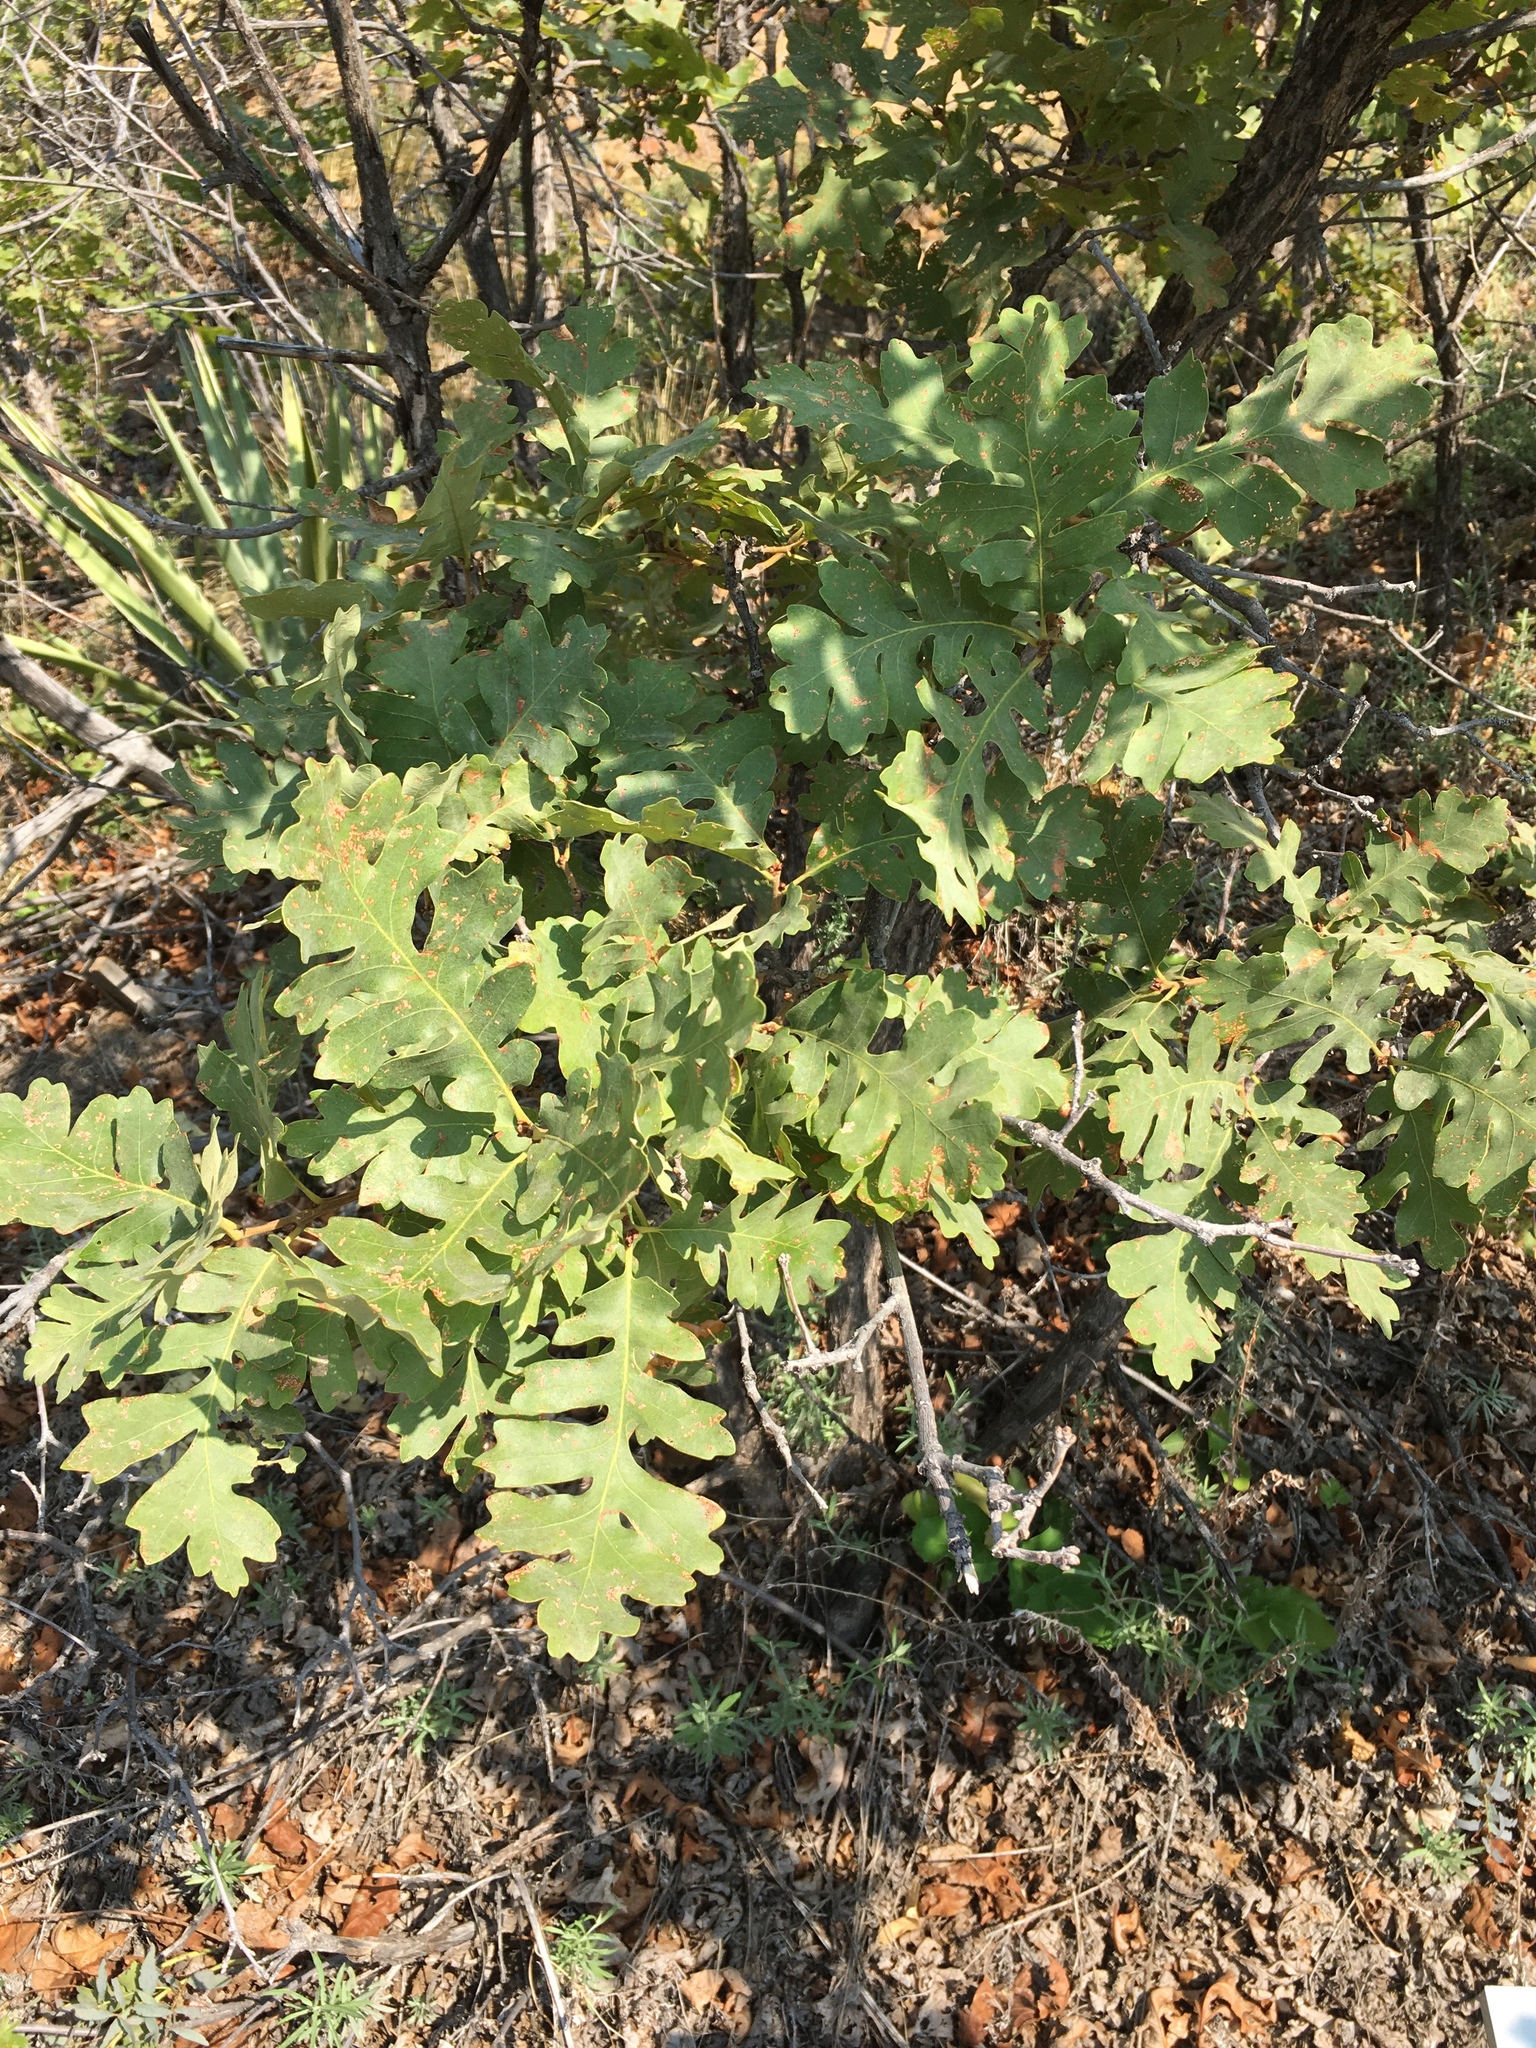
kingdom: Plantae
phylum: Tracheophyta
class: Magnoliopsida
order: Fagales
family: Fagaceae
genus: Quercus
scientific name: Quercus gambelii
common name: Gambel oak
